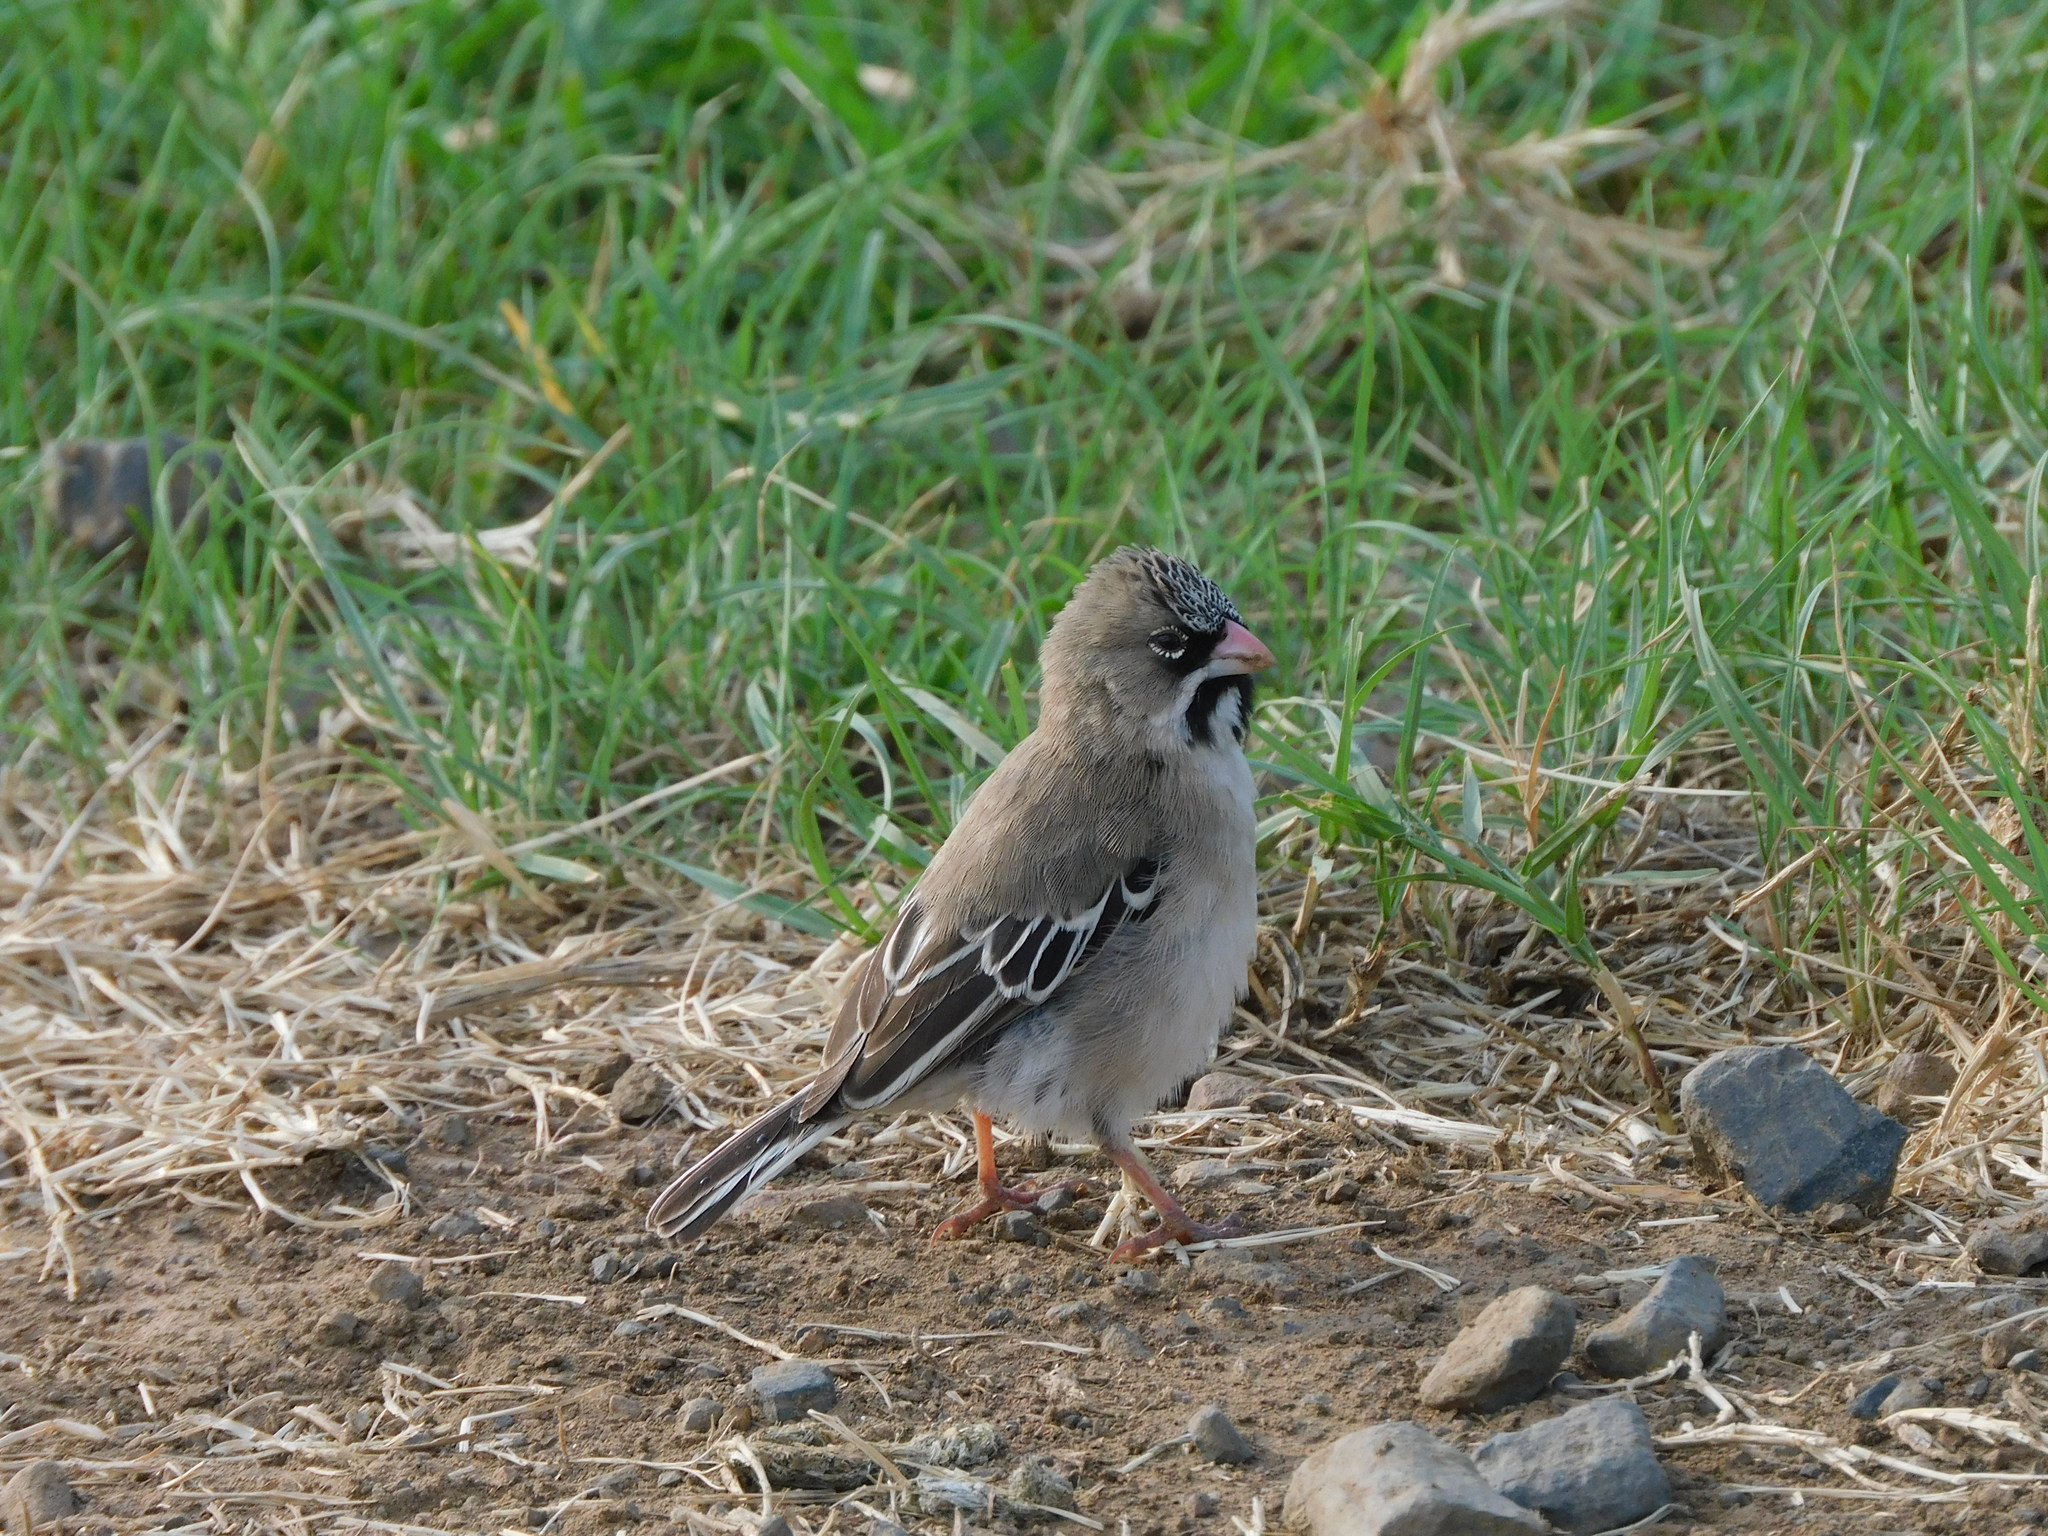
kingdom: Animalia
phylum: Chordata
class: Aves
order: Passeriformes
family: Ploceidae
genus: Sporopipes
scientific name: Sporopipes squamifrons
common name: Scaly-feathered weaver
